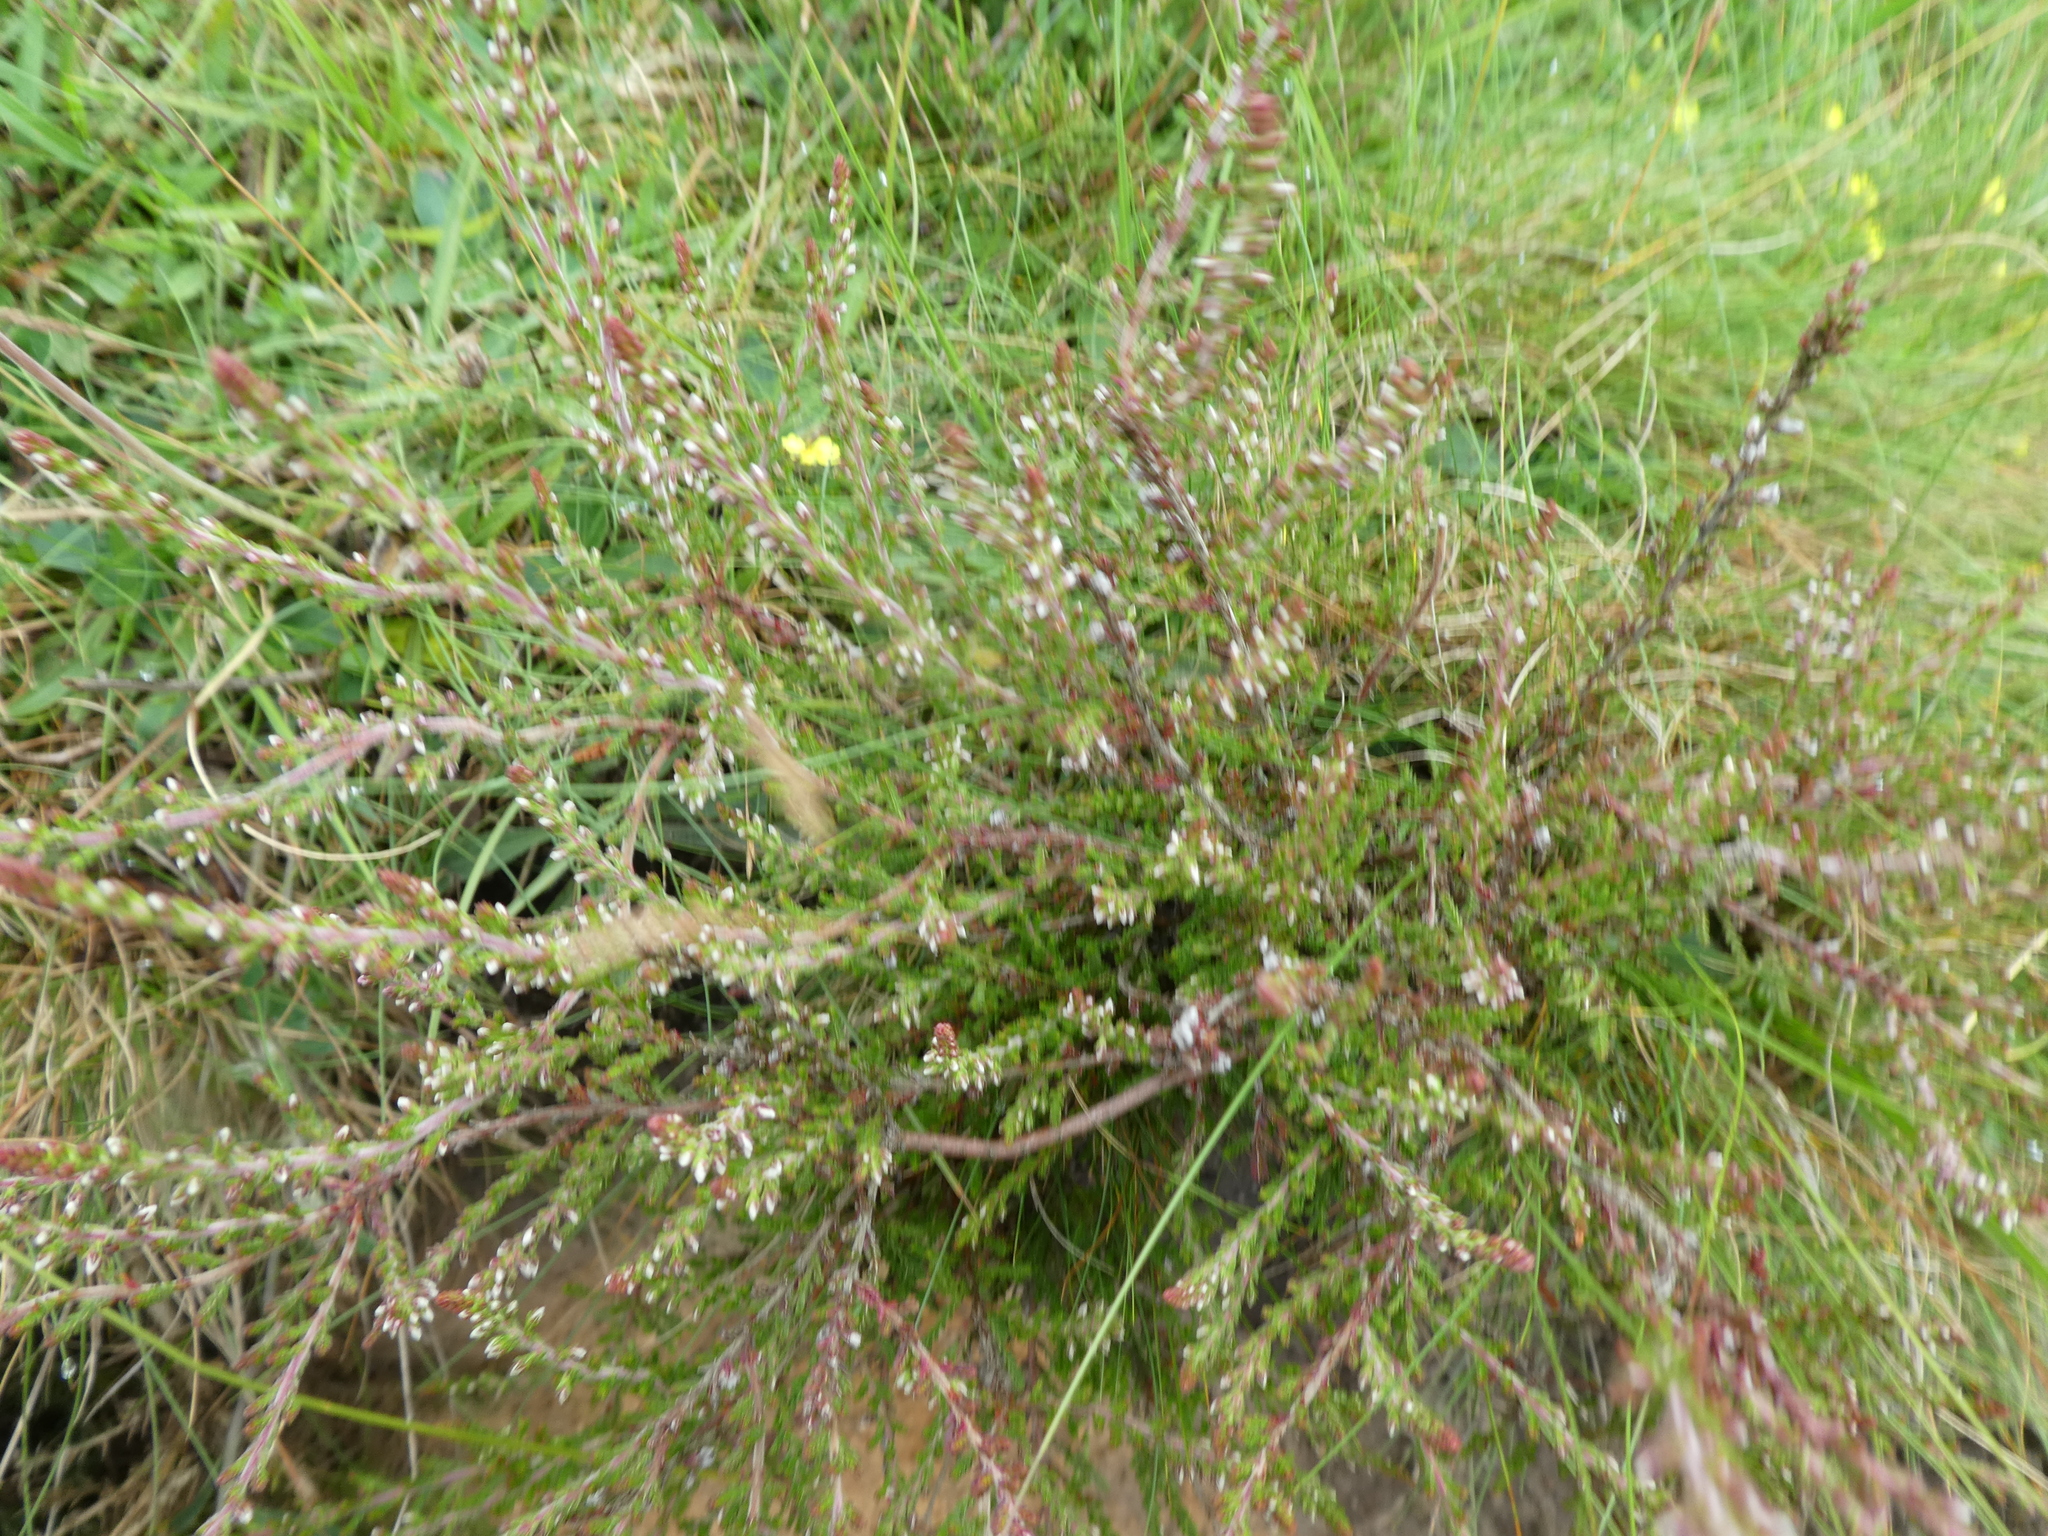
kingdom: Plantae
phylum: Tracheophyta
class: Magnoliopsida
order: Ericales
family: Ericaceae
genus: Calluna
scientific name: Calluna vulgaris
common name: Heather
